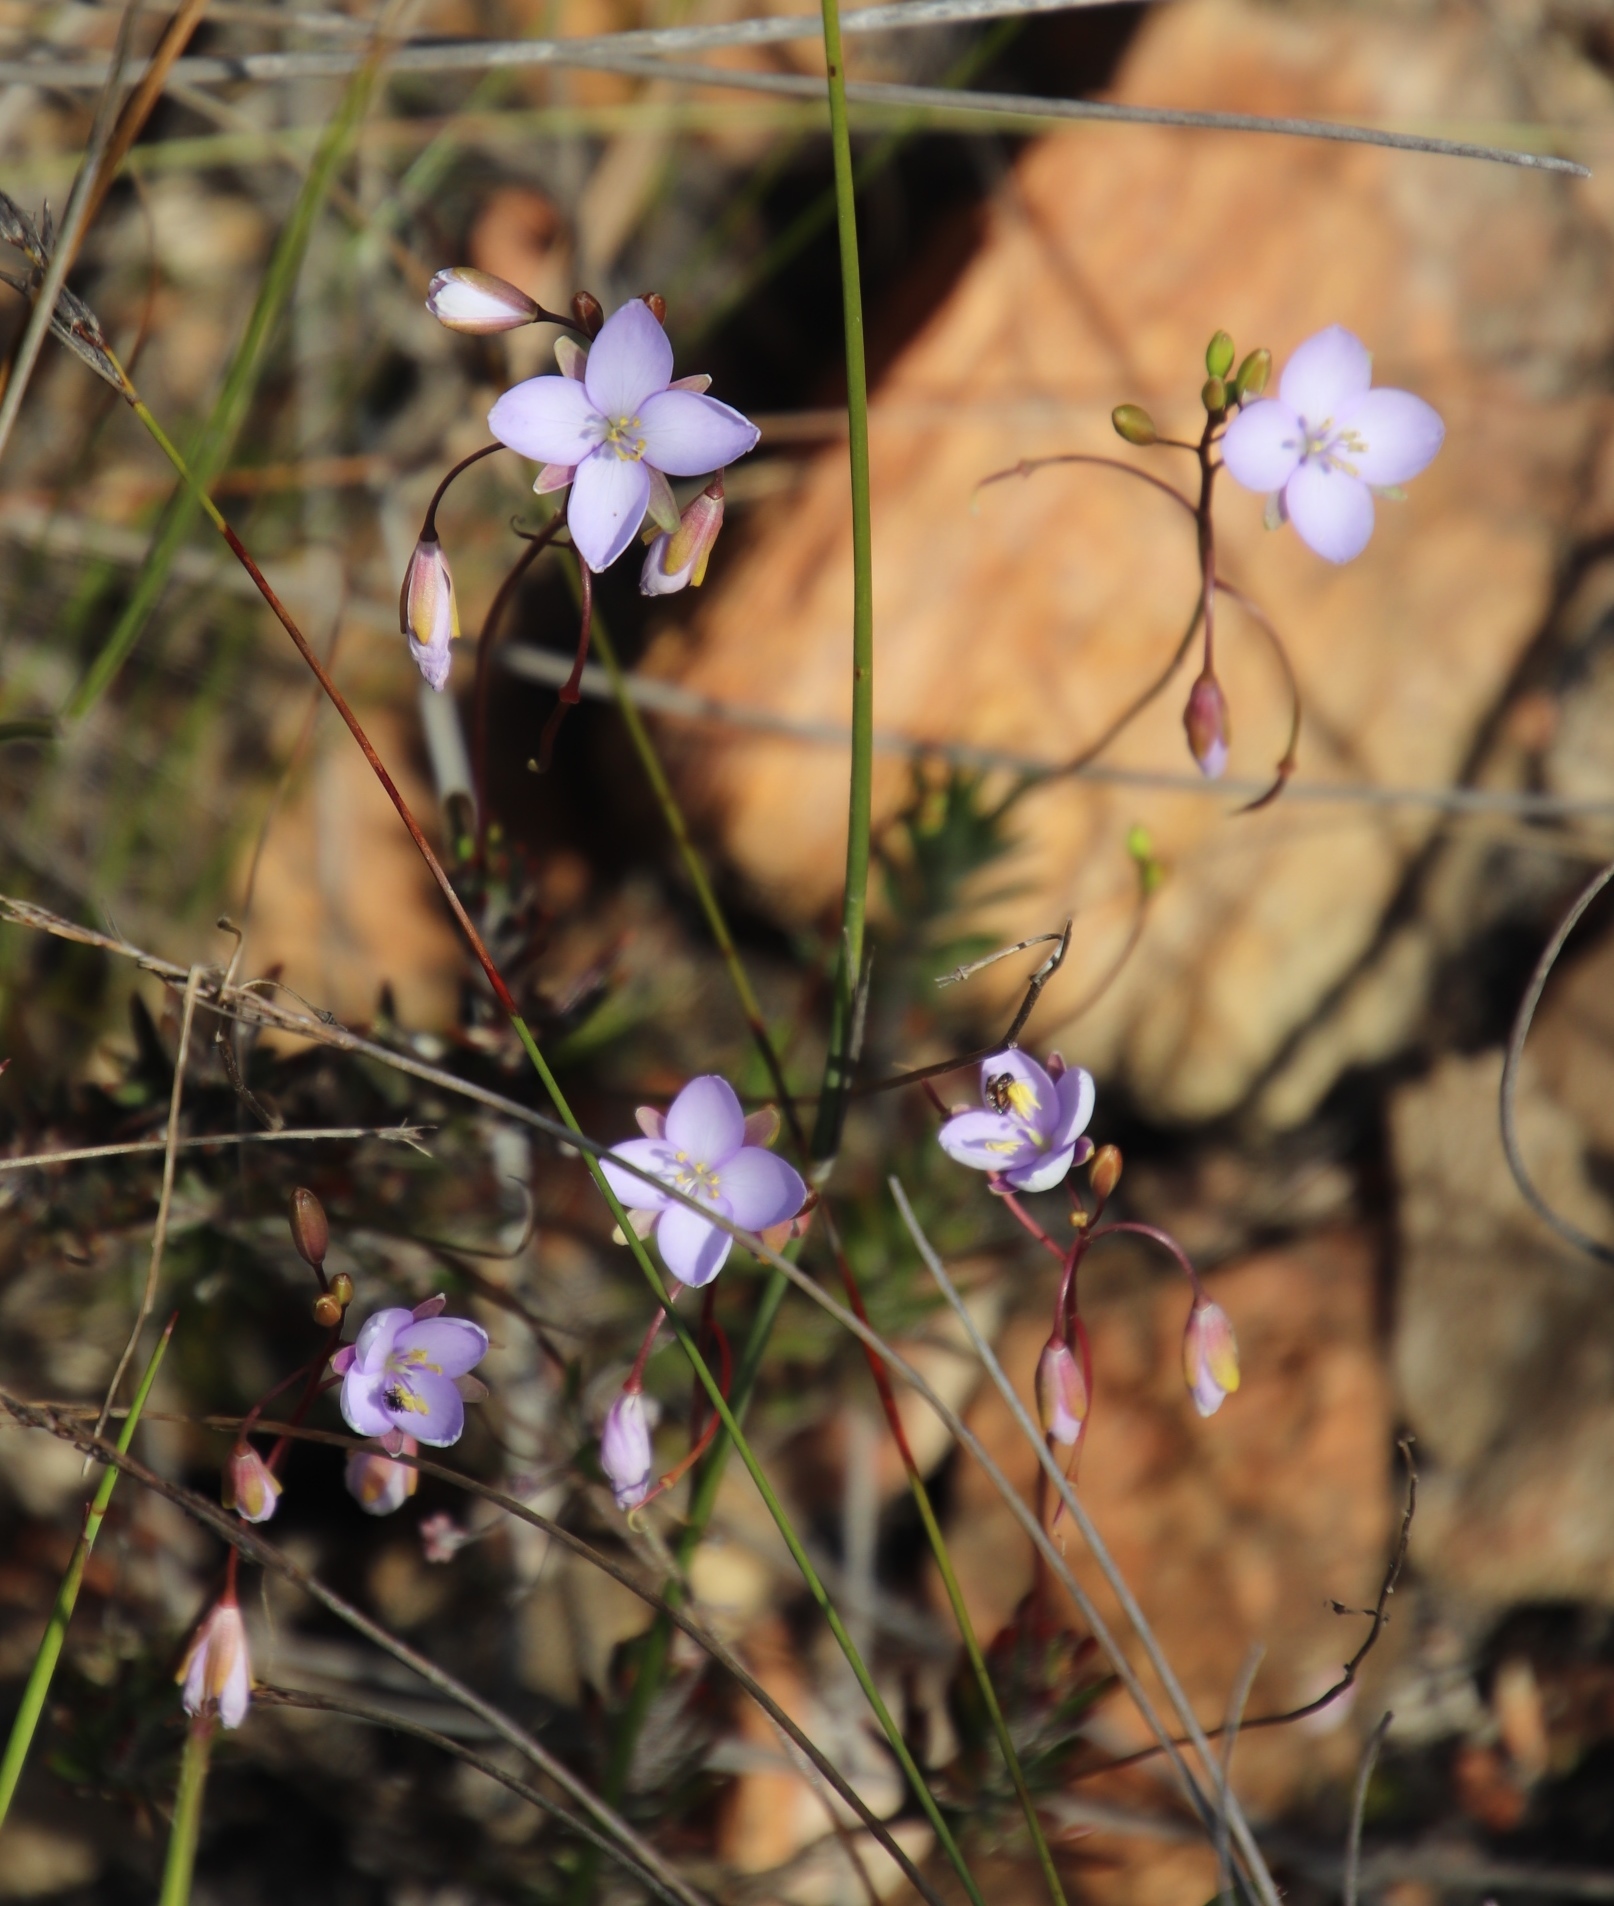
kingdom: Plantae
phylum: Tracheophyta
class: Magnoliopsida
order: Brassicales
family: Brassicaceae
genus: Heliophila
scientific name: Heliophila subulata
